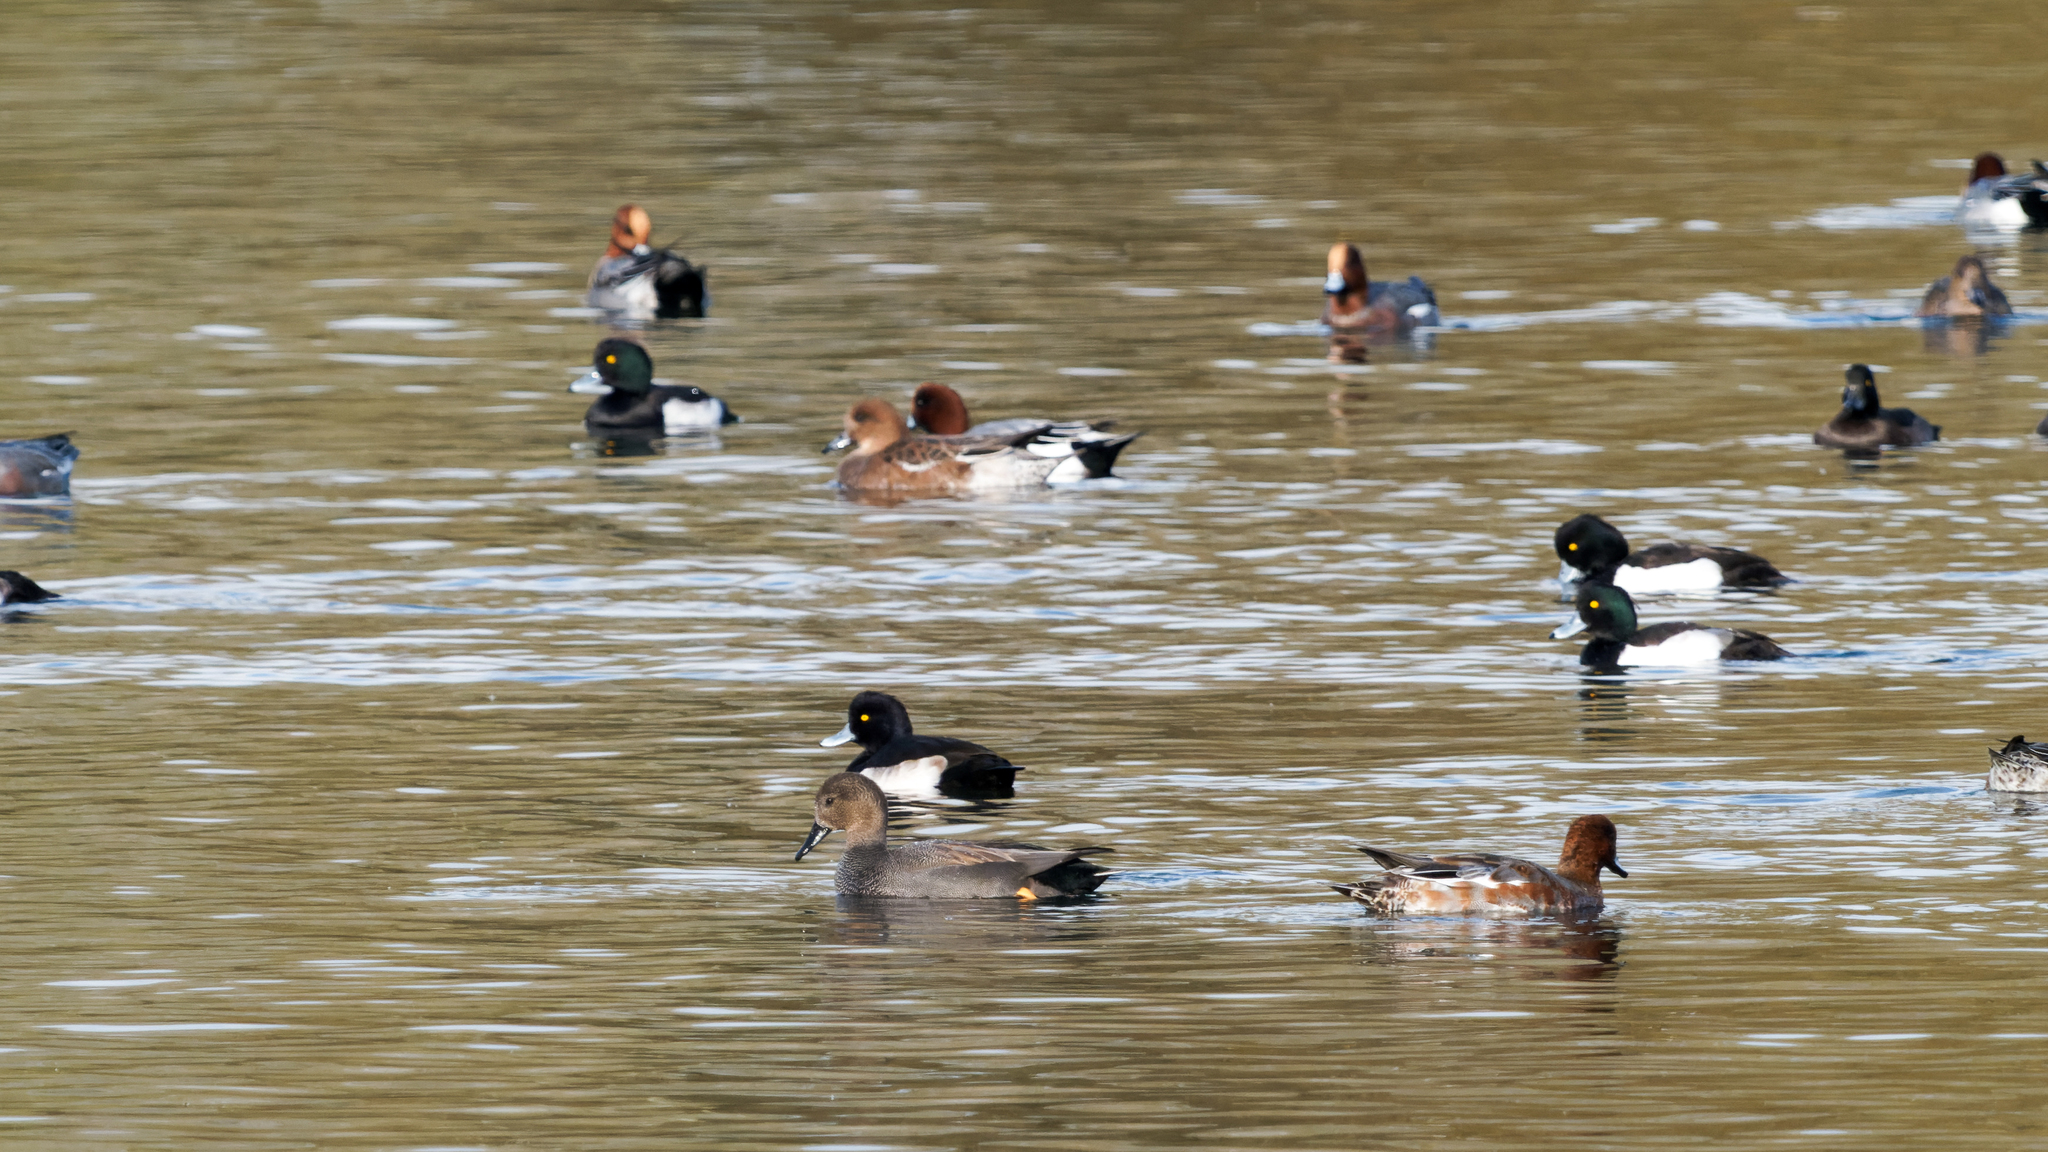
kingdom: Animalia
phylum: Chordata
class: Aves
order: Anseriformes
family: Anatidae
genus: Mareca
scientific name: Mareca penelope
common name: Eurasian wigeon
